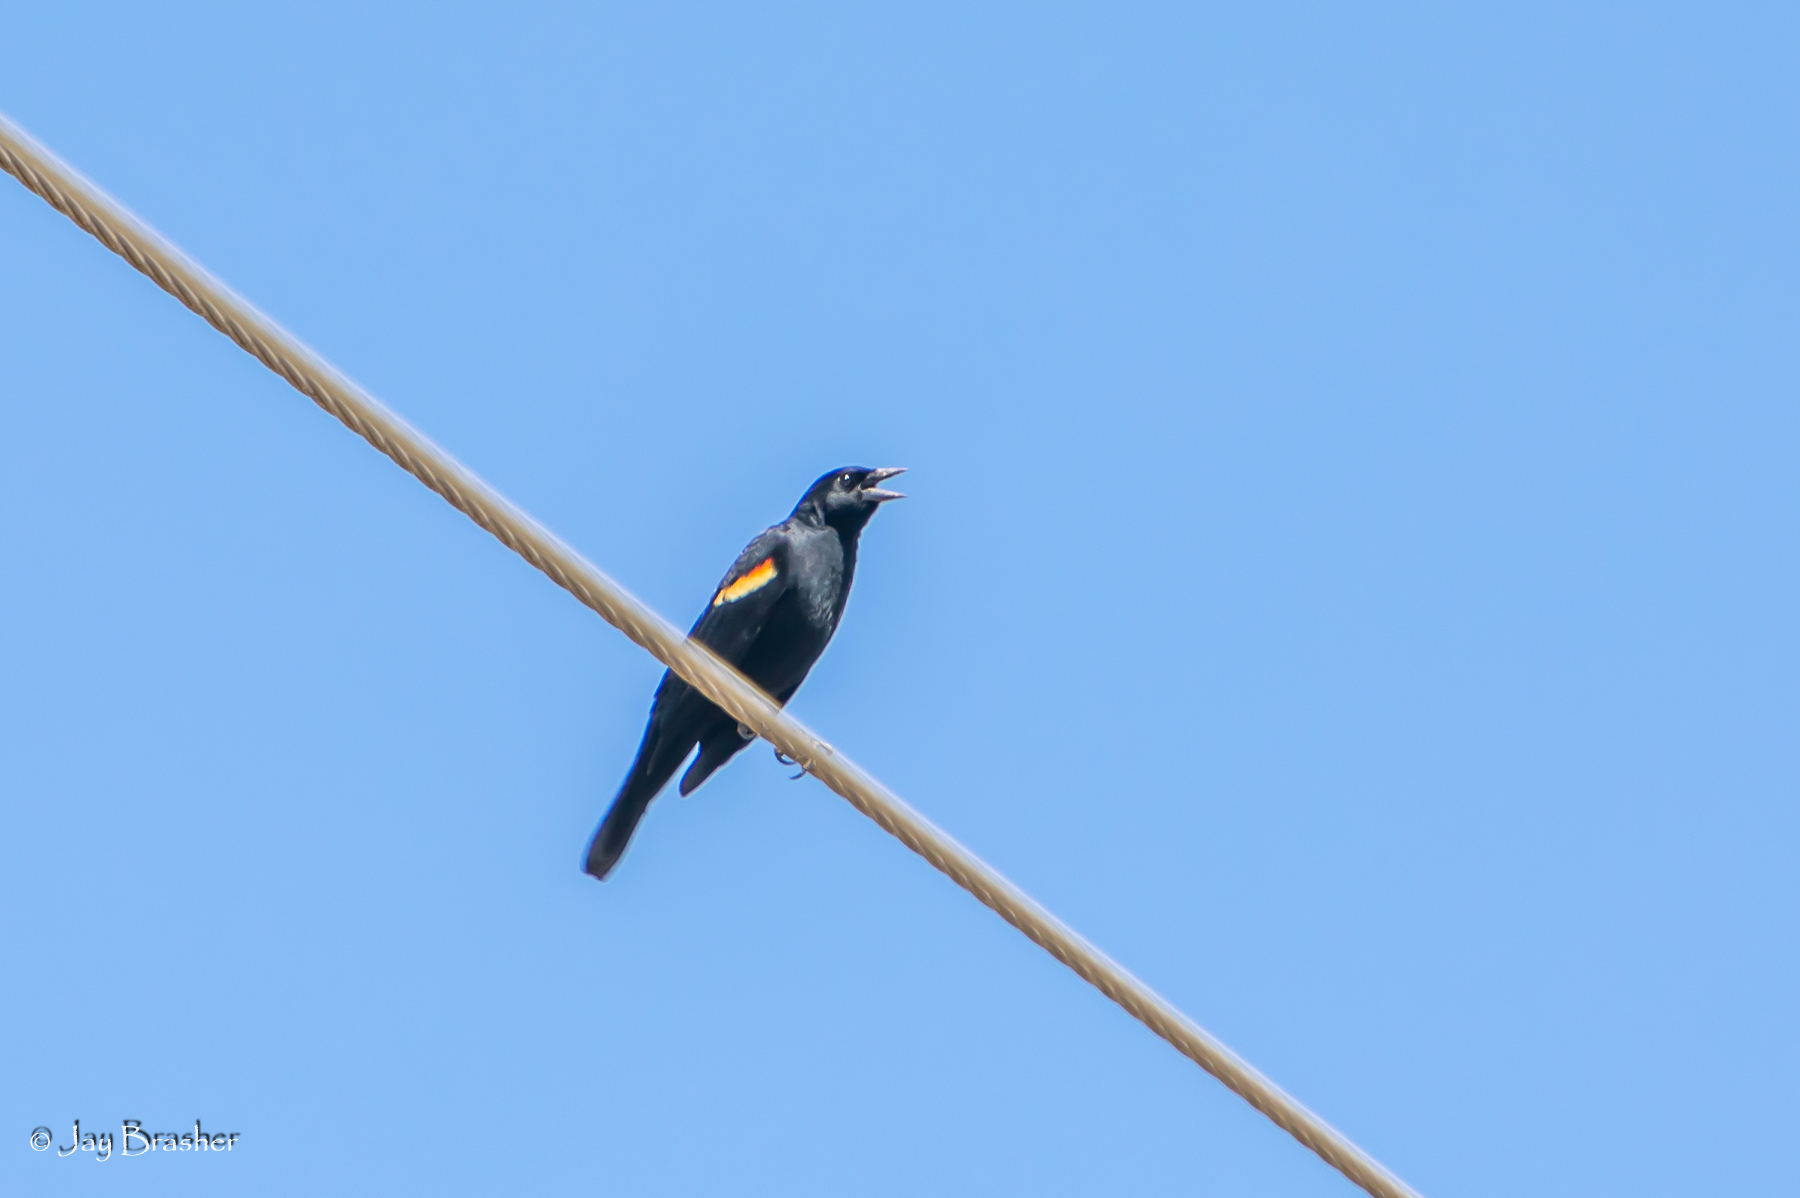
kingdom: Animalia
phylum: Chordata
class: Aves
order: Passeriformes
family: Icteridae
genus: Agelaius
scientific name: Agelaius phoeniceus
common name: Red-winged blackbird
